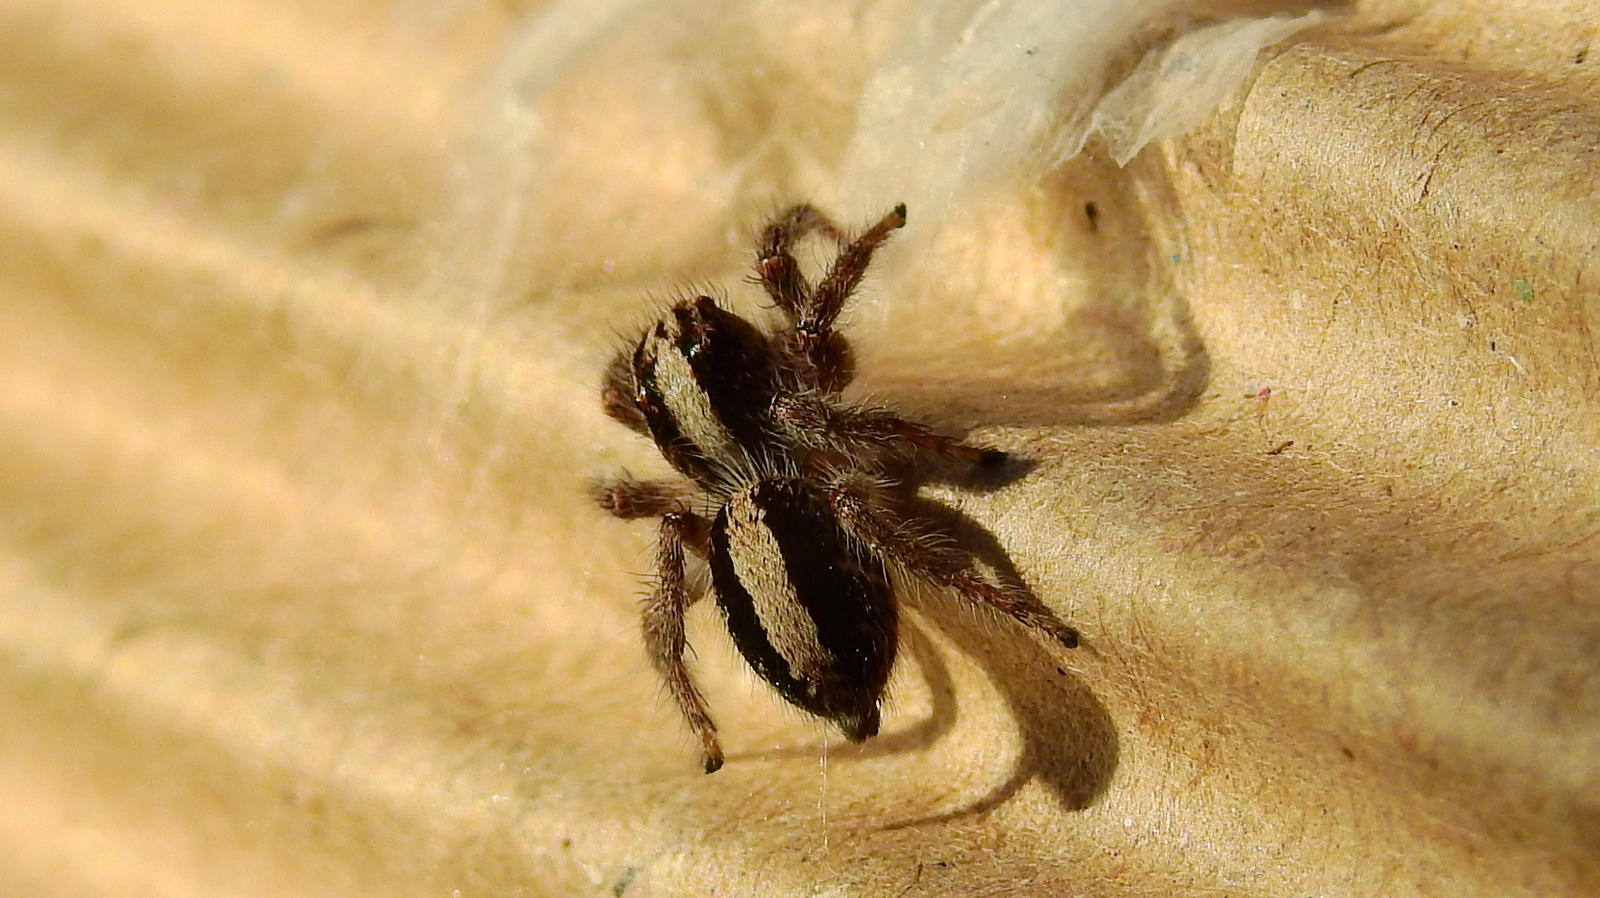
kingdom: Animalia
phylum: Arthropoda
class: Arachnida
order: Araneae
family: Salticidae
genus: Megafreya
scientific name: Megafreya sutrix
